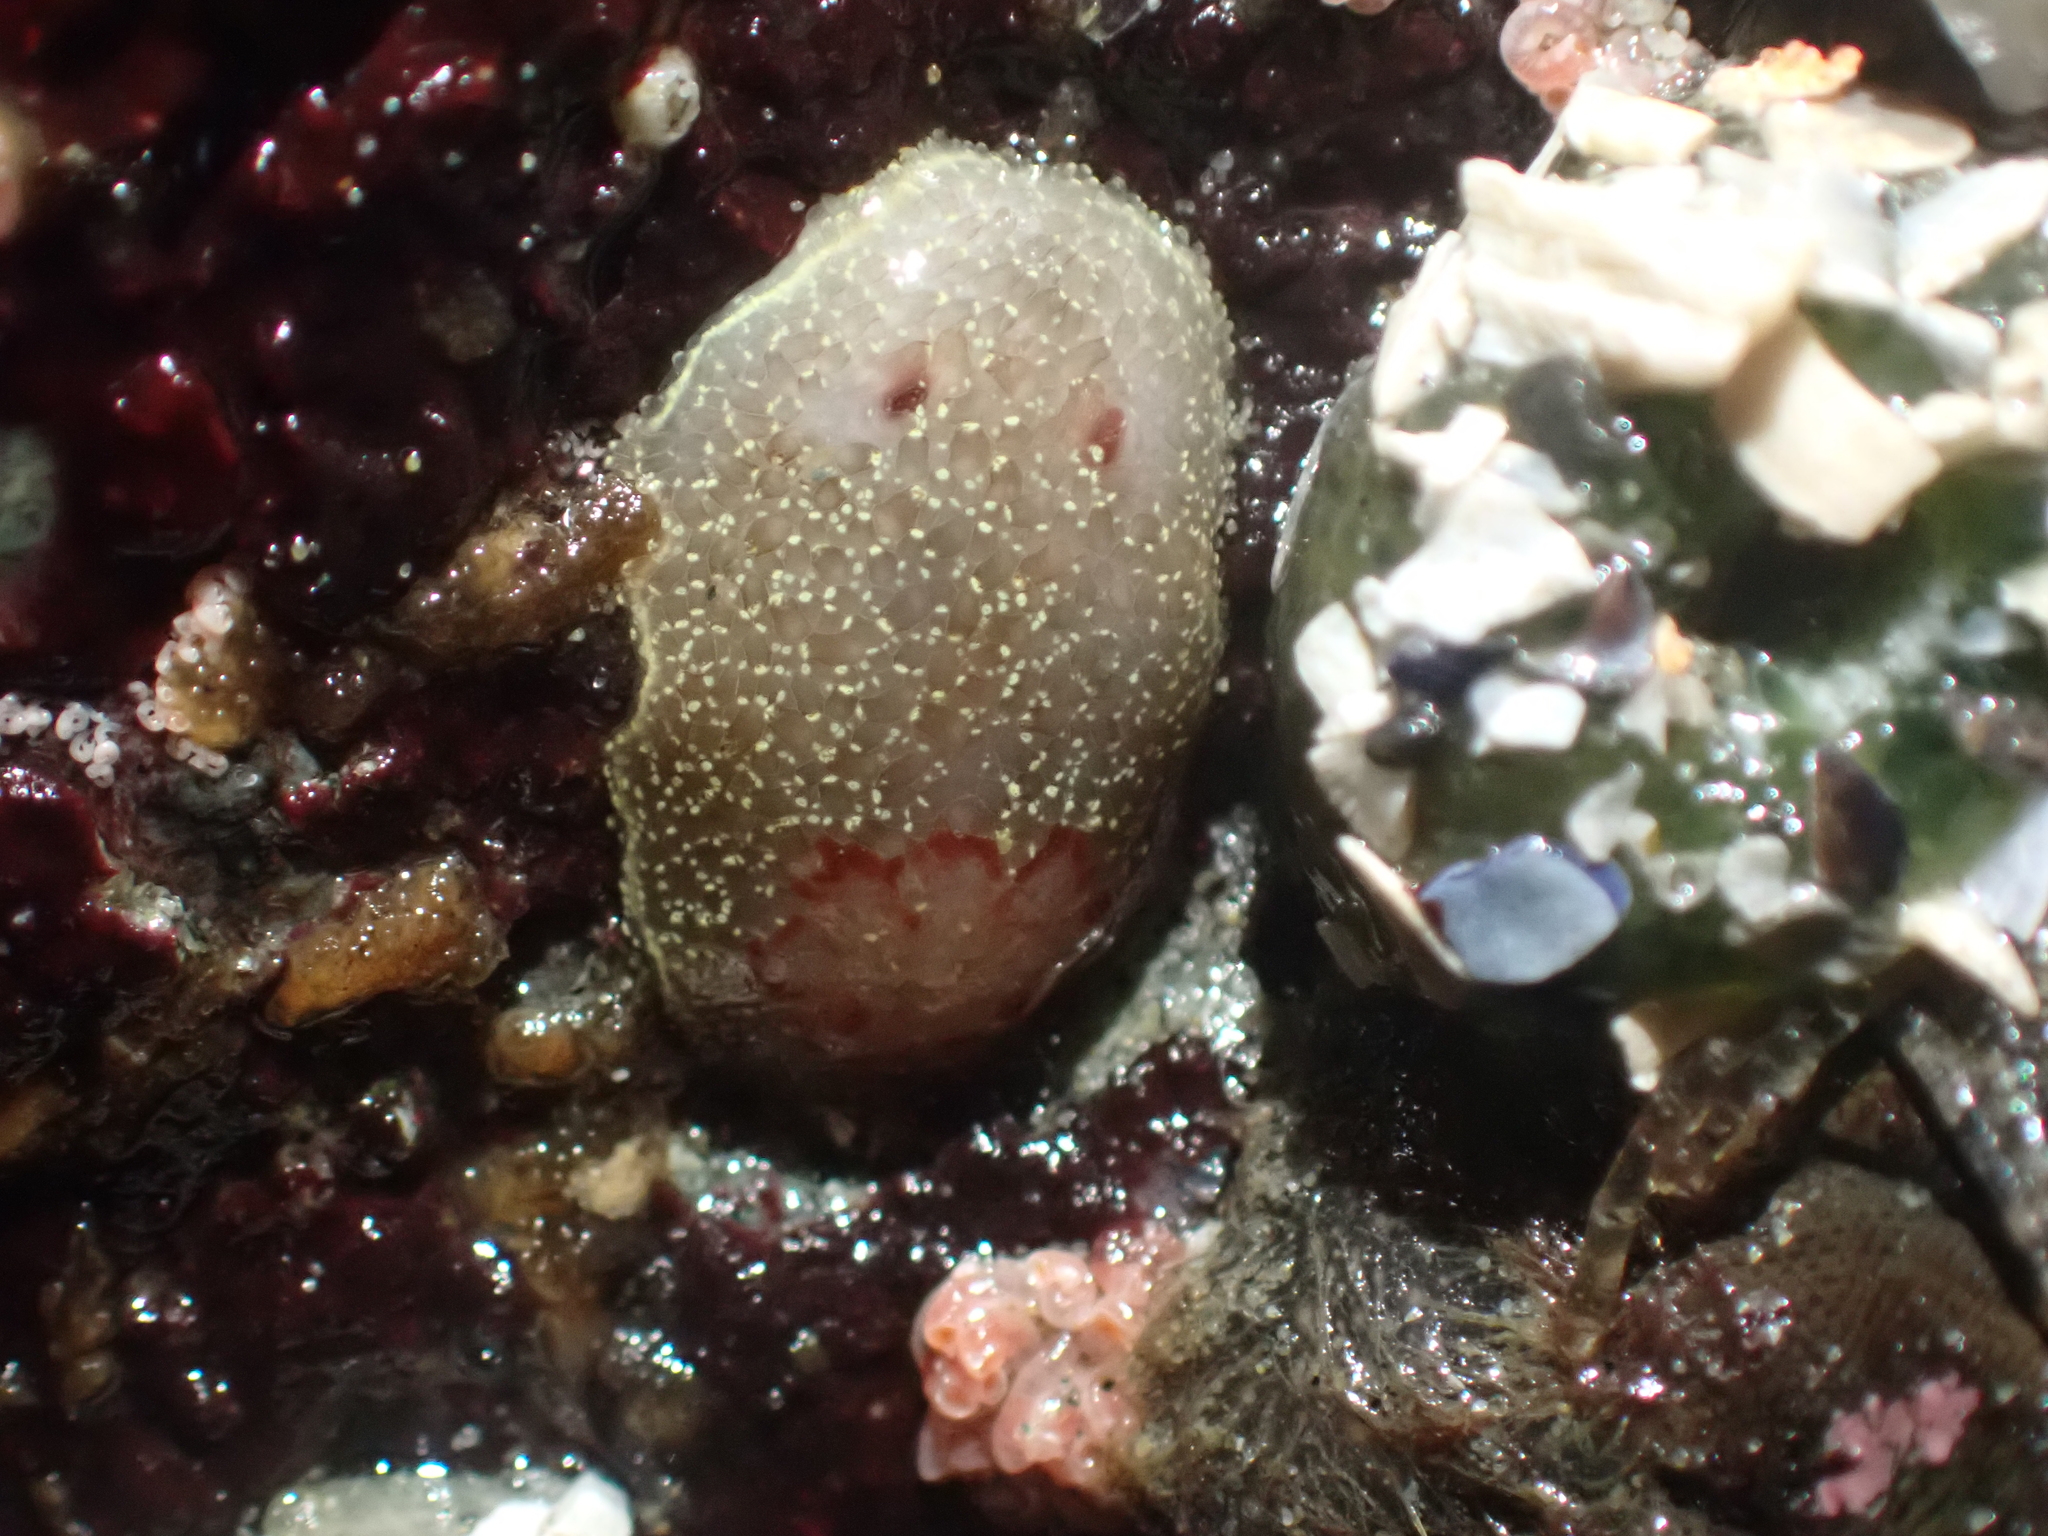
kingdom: Animalia
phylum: Mollusca
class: Gastropoda
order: Nudibranchia
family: Onchidorididae
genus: Acanthodoris
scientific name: Acanthodoris nanaimoensis
